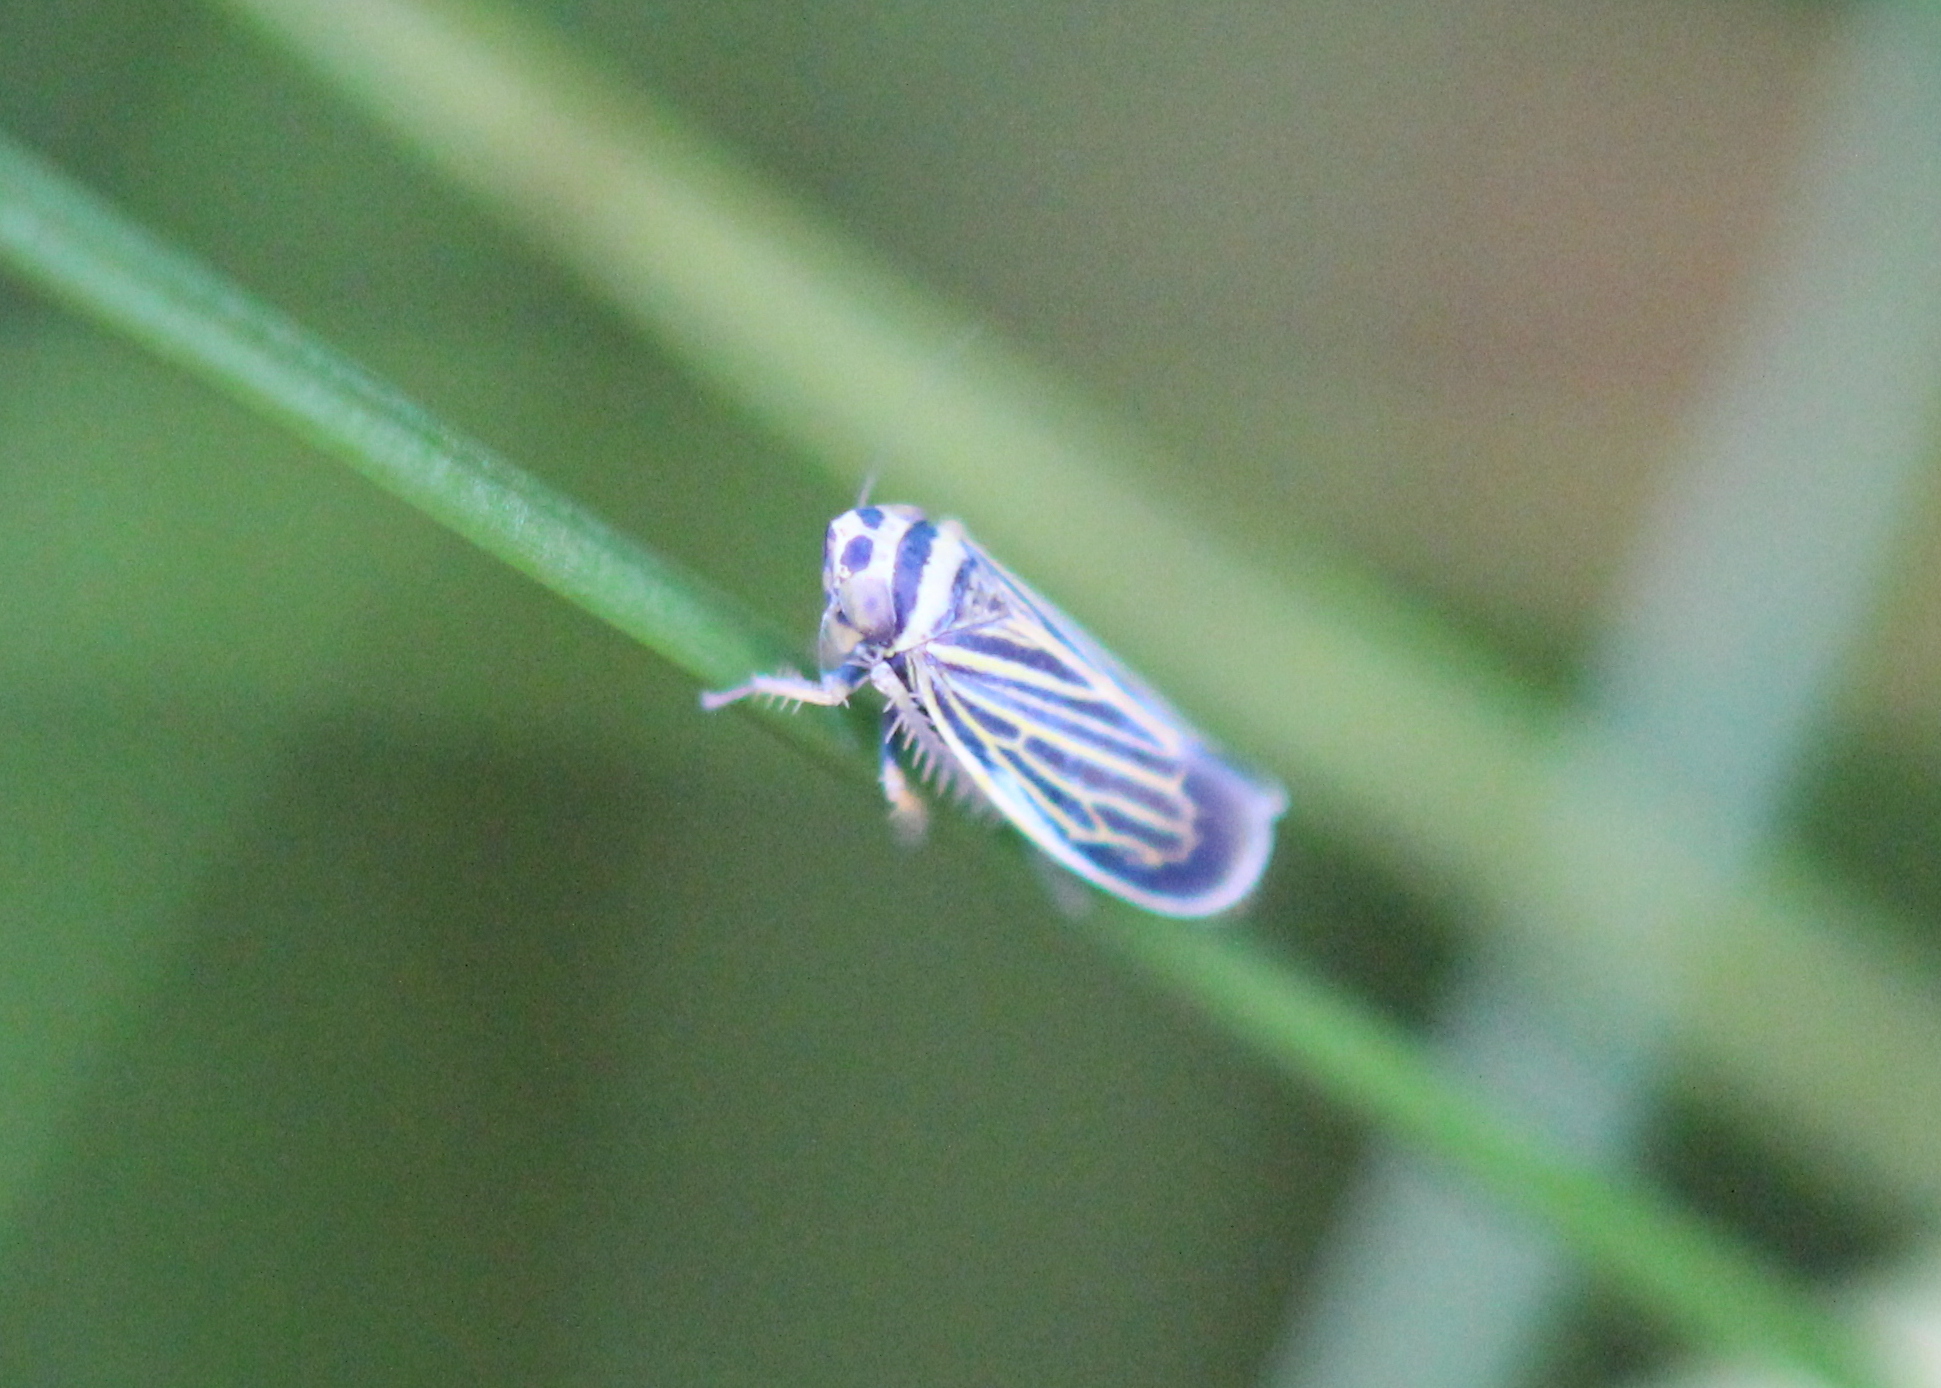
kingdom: Animalia
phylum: Arthropoda
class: Insecta
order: Hemiptera
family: Cicadellidae
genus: Amblysellus
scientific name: Amblysellus curtisii
